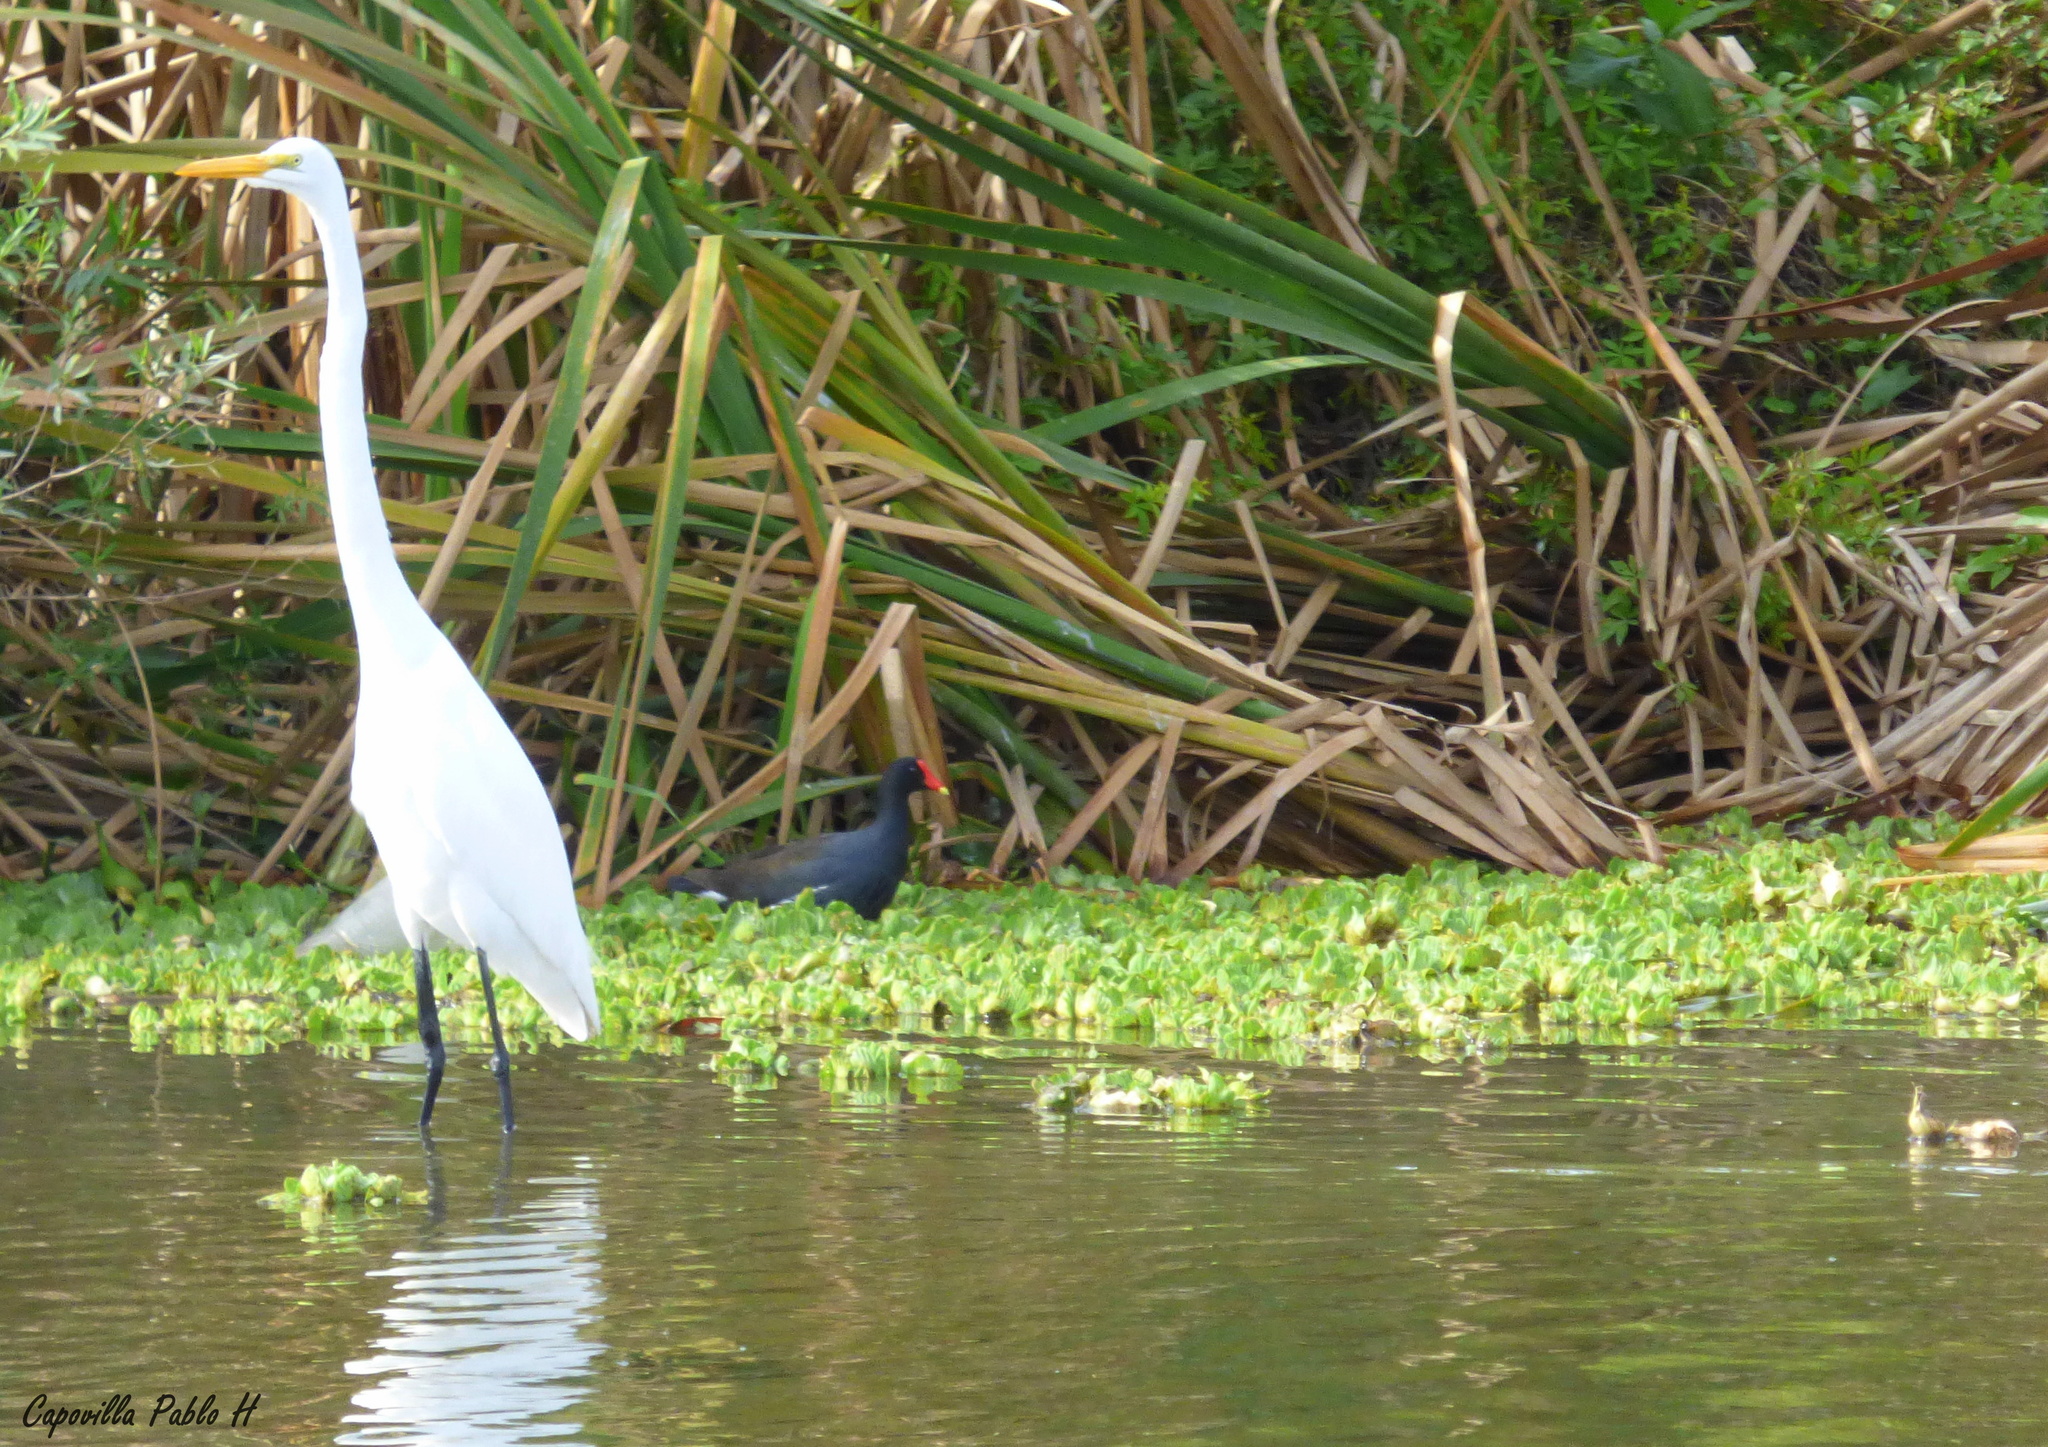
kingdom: Animalia
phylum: Chordata
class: Aves
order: Pelecaniformes
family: Ardeidae
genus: Ardea
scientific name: Ardea alba
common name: Great egret
